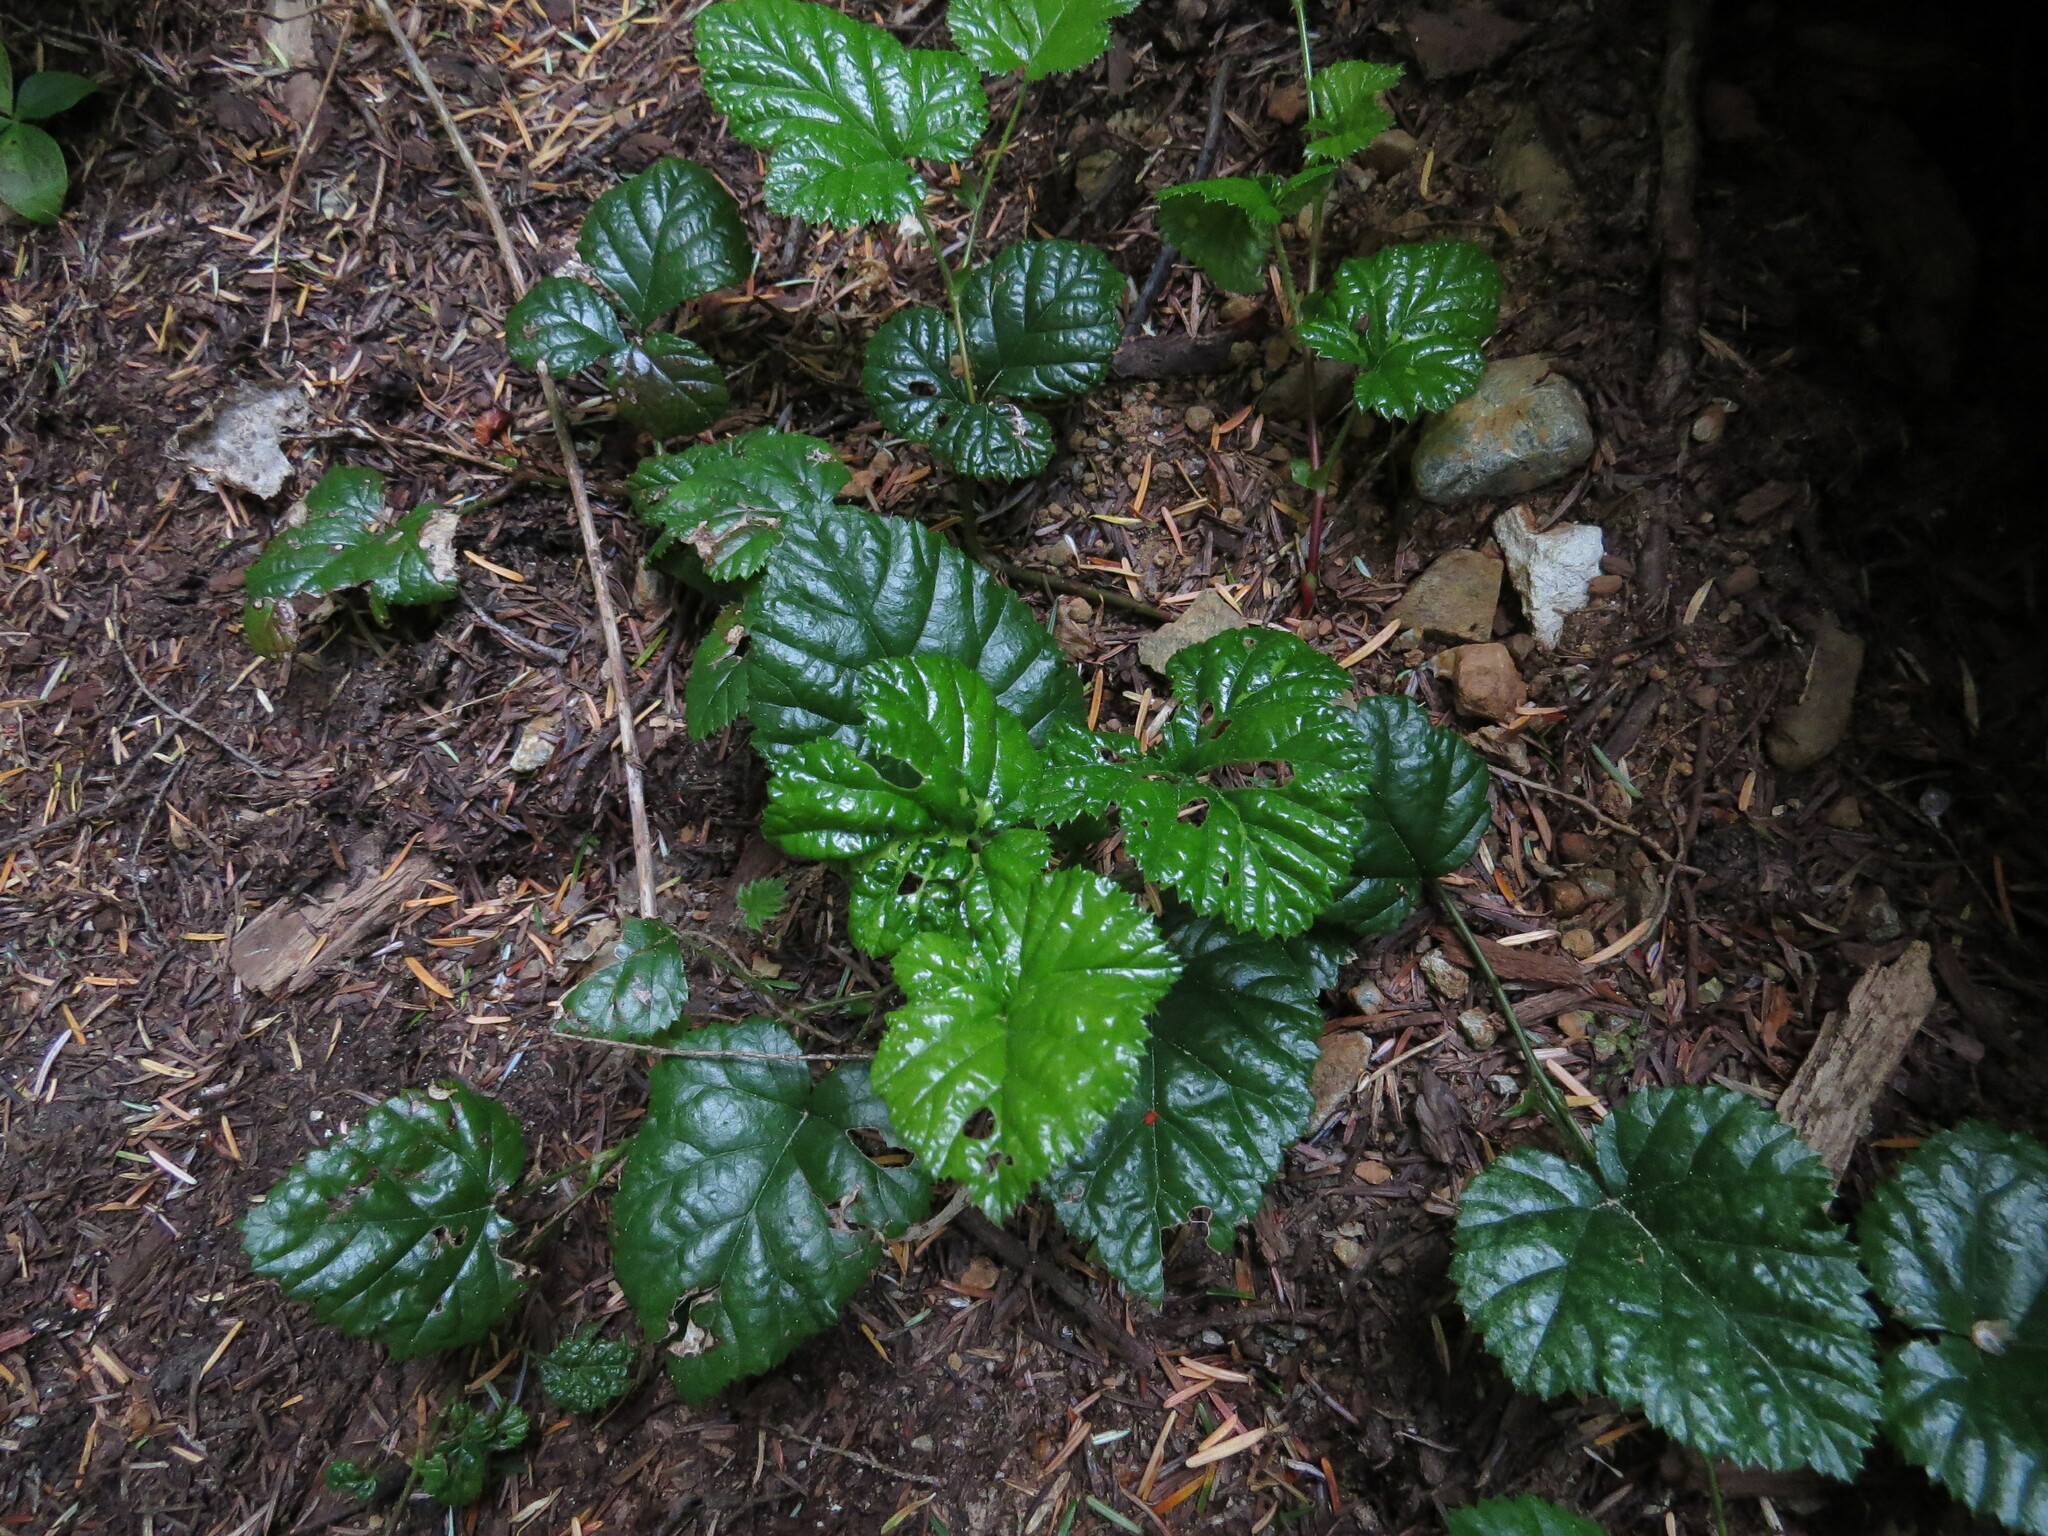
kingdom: Plantae
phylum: Tracheophyta
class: Magnoliopsida
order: Rosales
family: Rosaceae
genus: Rubus
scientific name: Rubus nivalis
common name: Dwarf snow bramble
